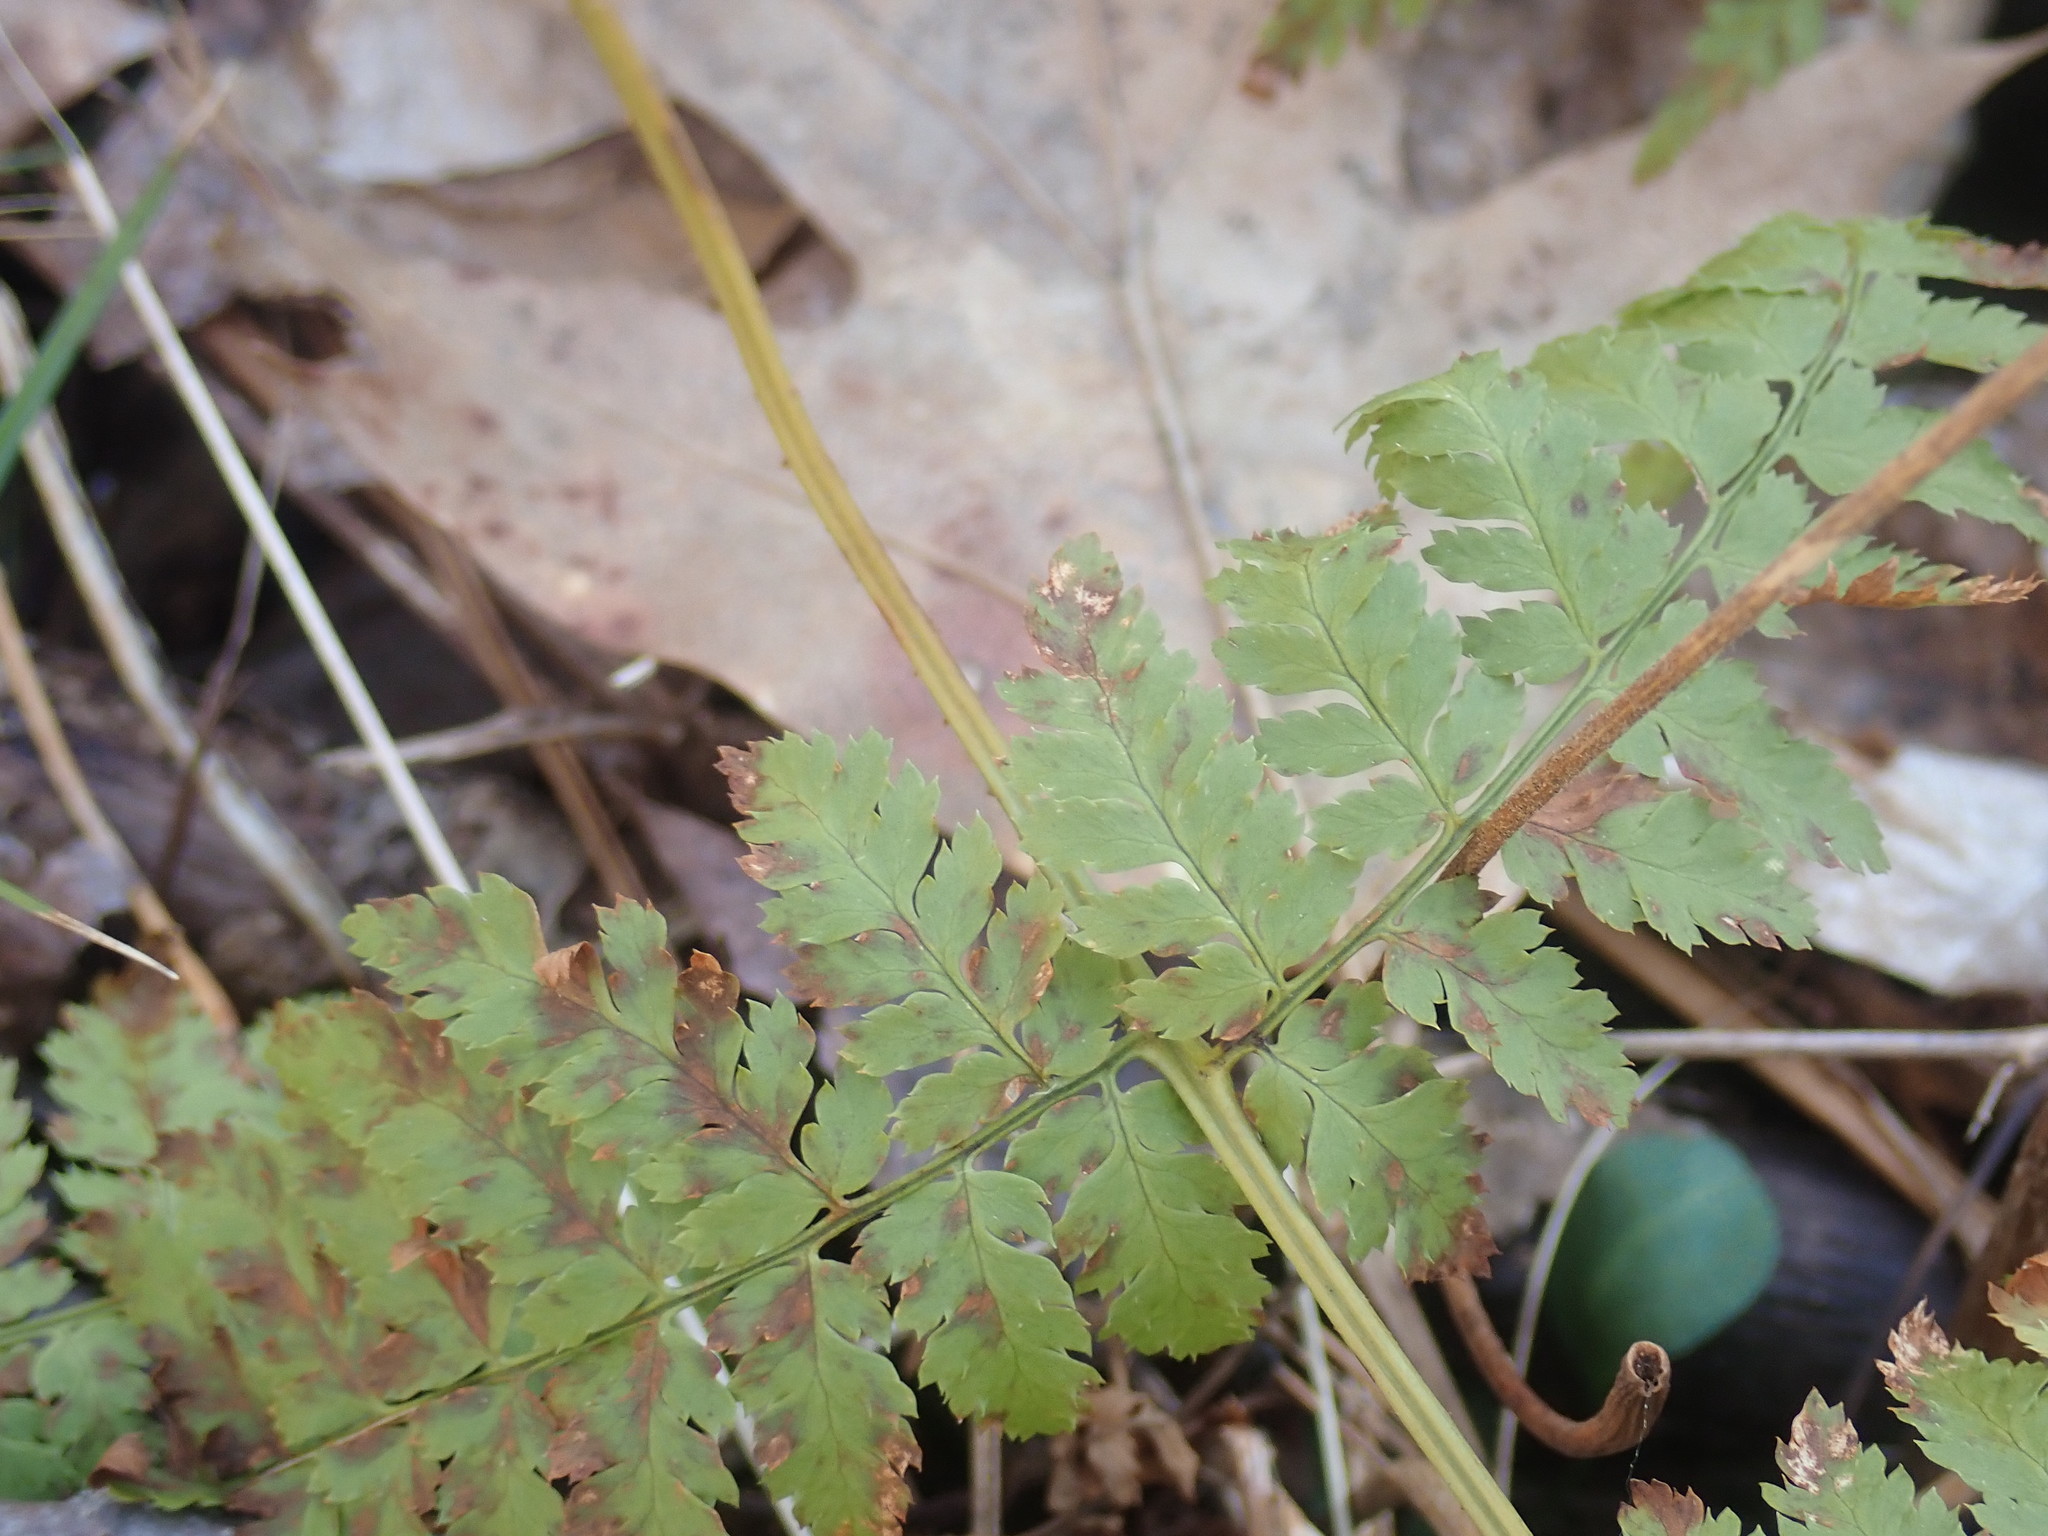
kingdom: Plantae
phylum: Tracheophyta
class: Polypodiopsida
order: Polypodiales
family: Dryopteridaceae
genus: Dryopteris
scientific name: Dryopteris intermedia
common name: Evergreen wood fern
